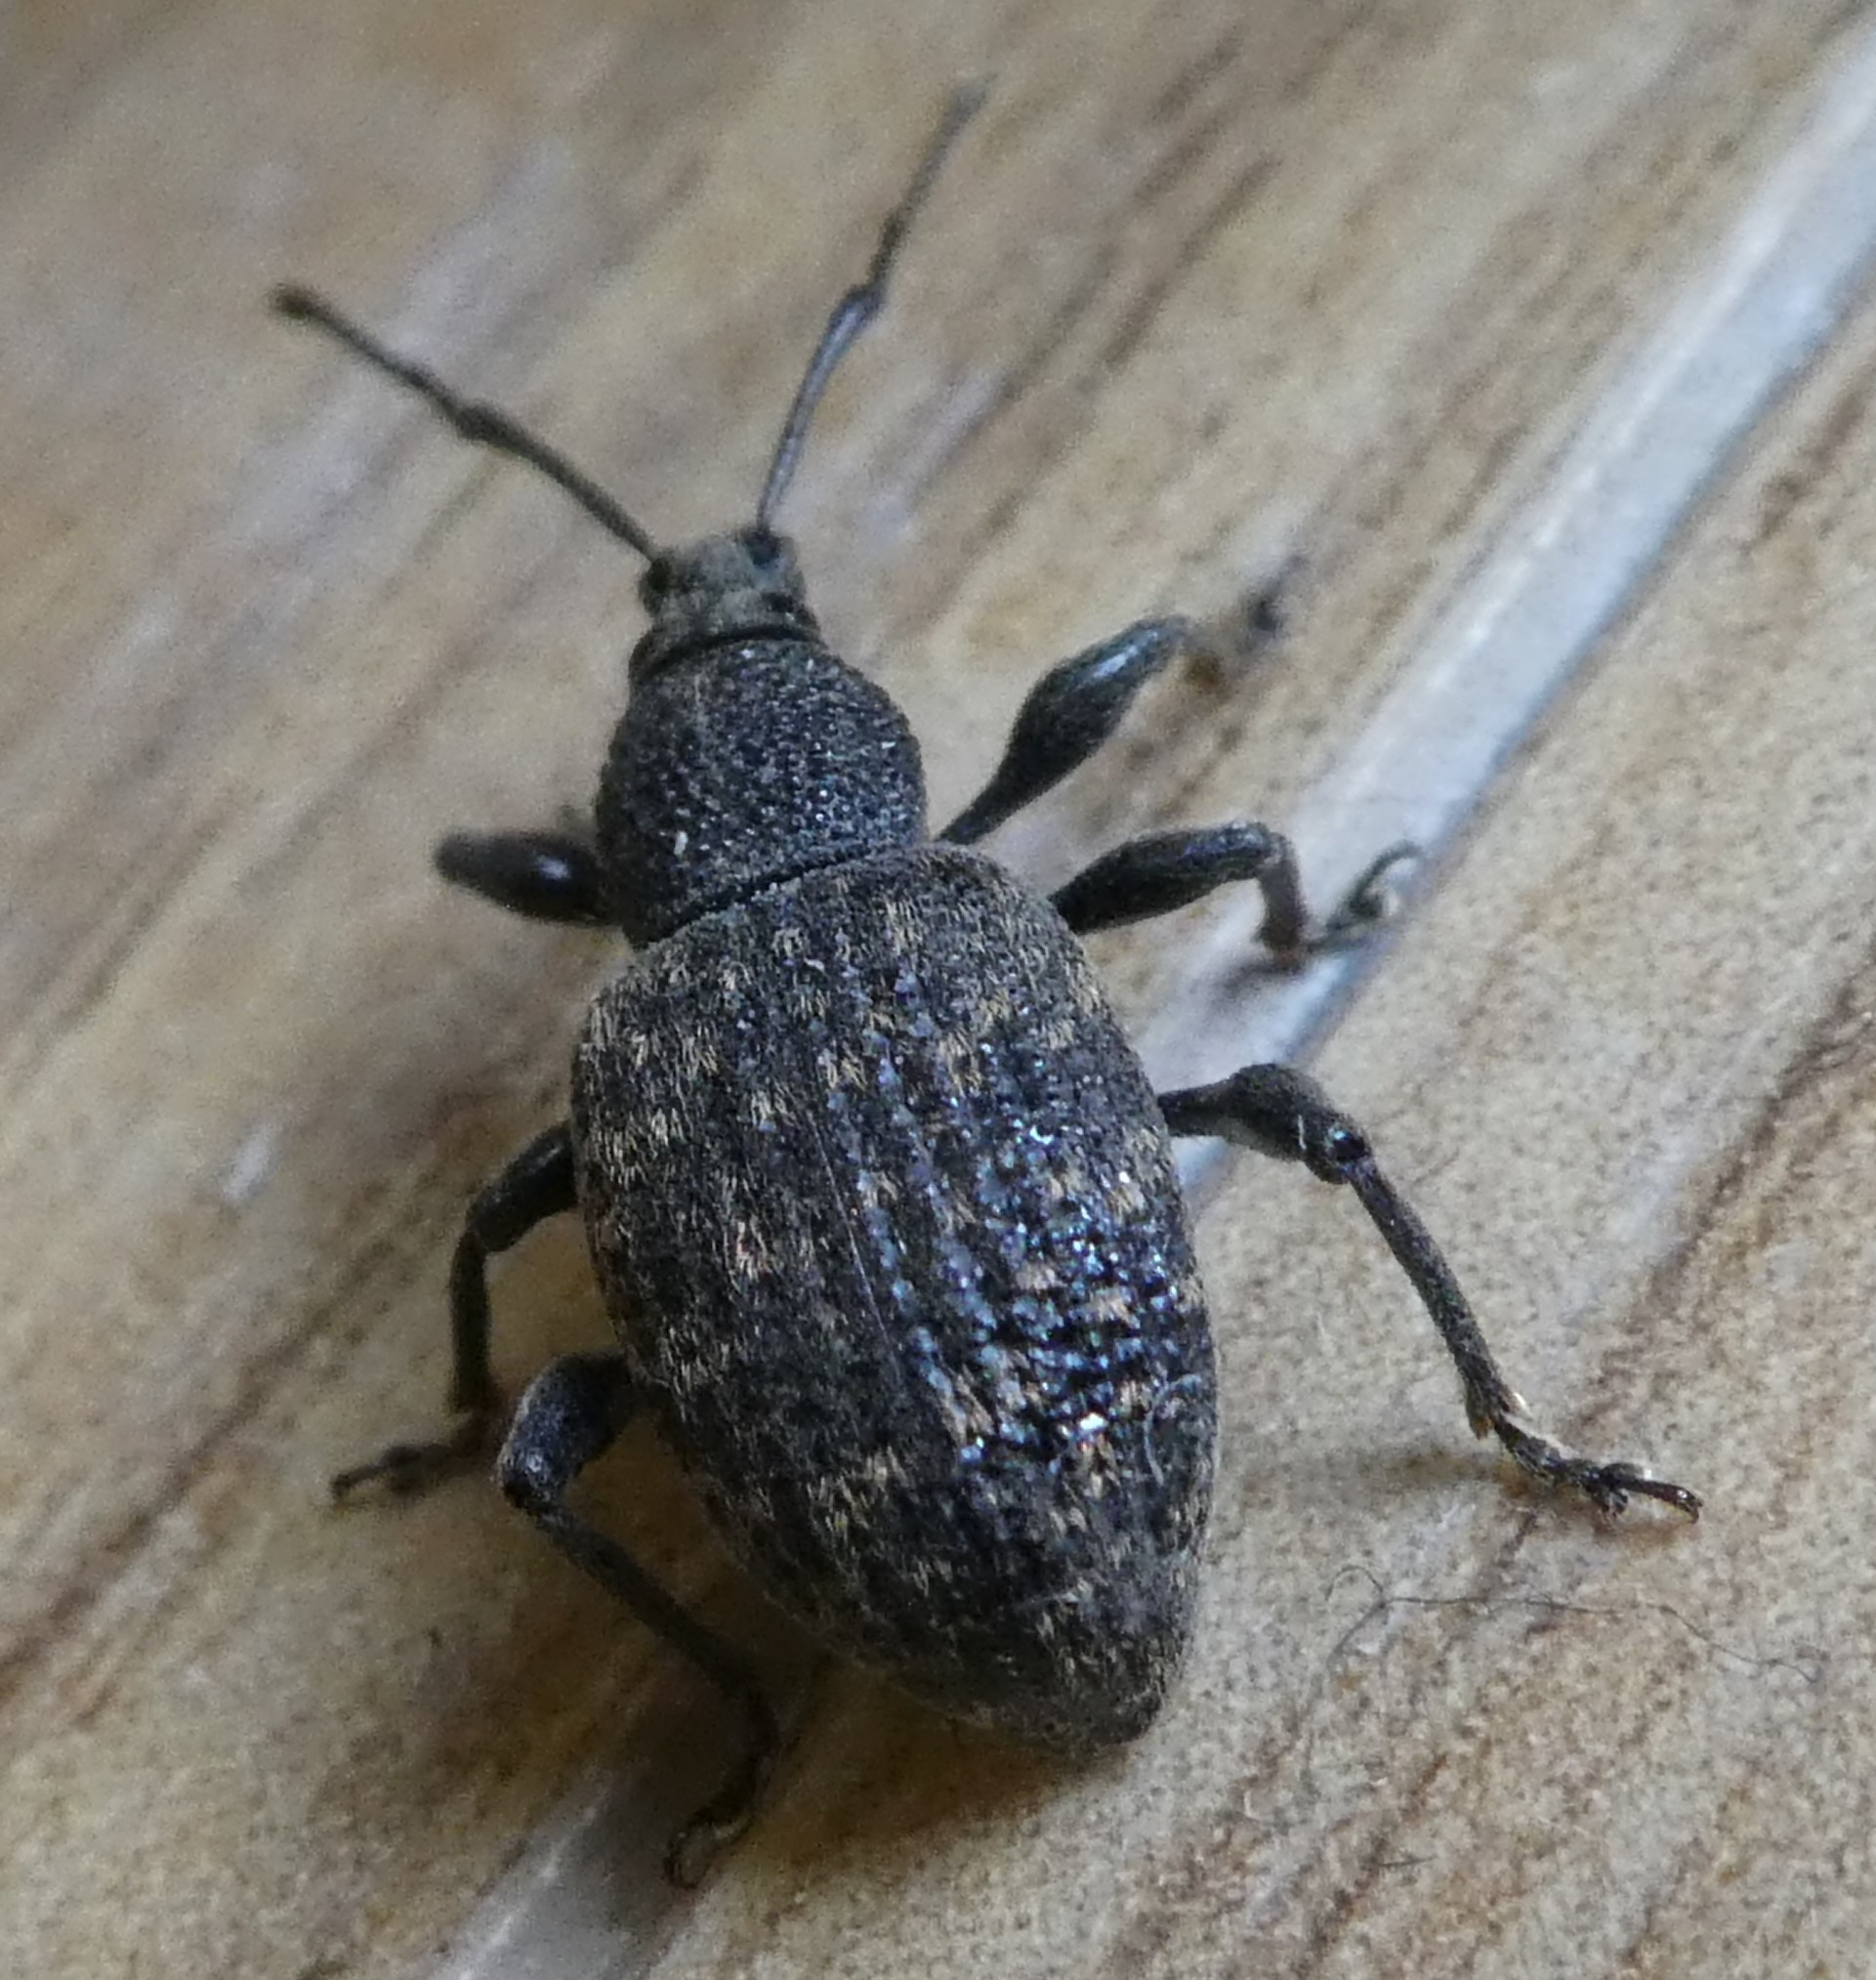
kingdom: Animalia
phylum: Arthropoda
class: Insecta
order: Coleoptera
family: Curculionidae
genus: Otiorhynchus
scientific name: Otiorhynchus sulcatus
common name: Black vine weevil
